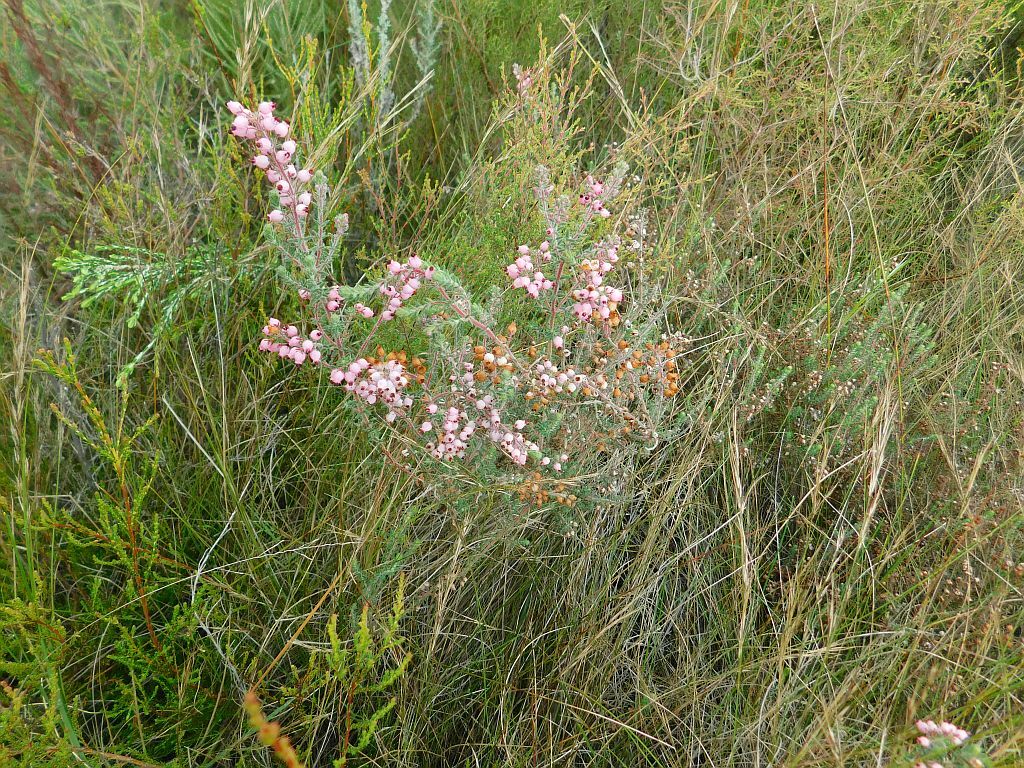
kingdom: Plantae
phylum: Tracheophyta
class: Magnoliopsida
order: Ericales
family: Ericaceae
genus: Erica
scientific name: Erica hirta
